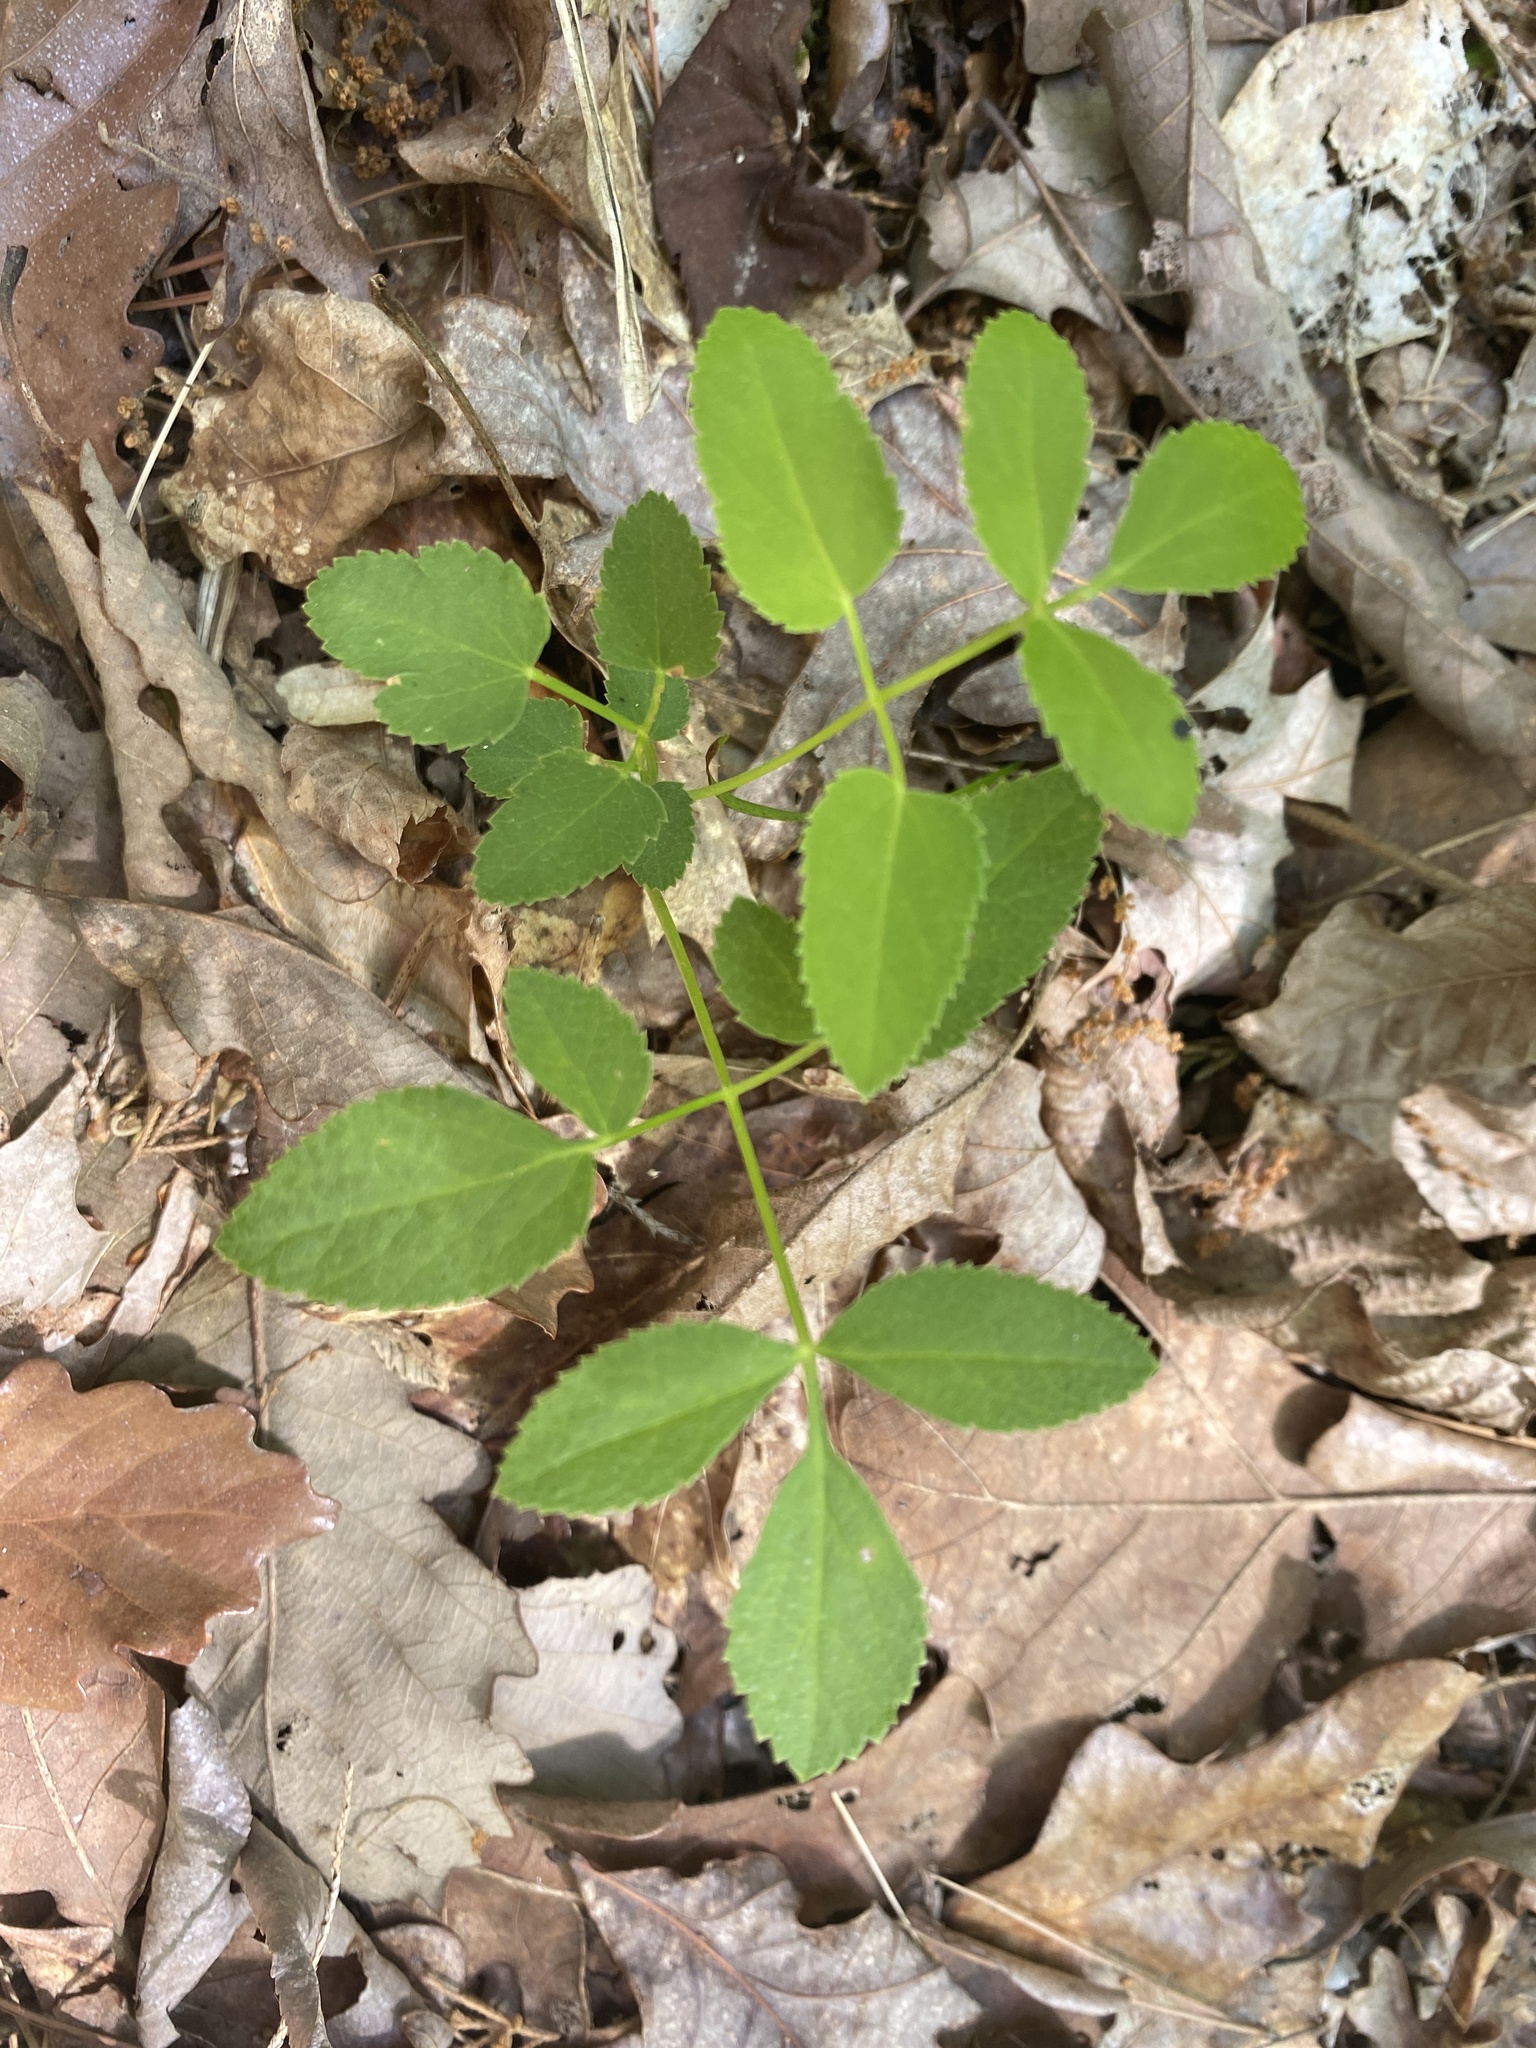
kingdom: Plantae
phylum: Tracheophyta
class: Magnoliopsida
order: Apiales
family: Apiaceae
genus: Angelica
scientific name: Angelica venenosa
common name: Hairy angelica
